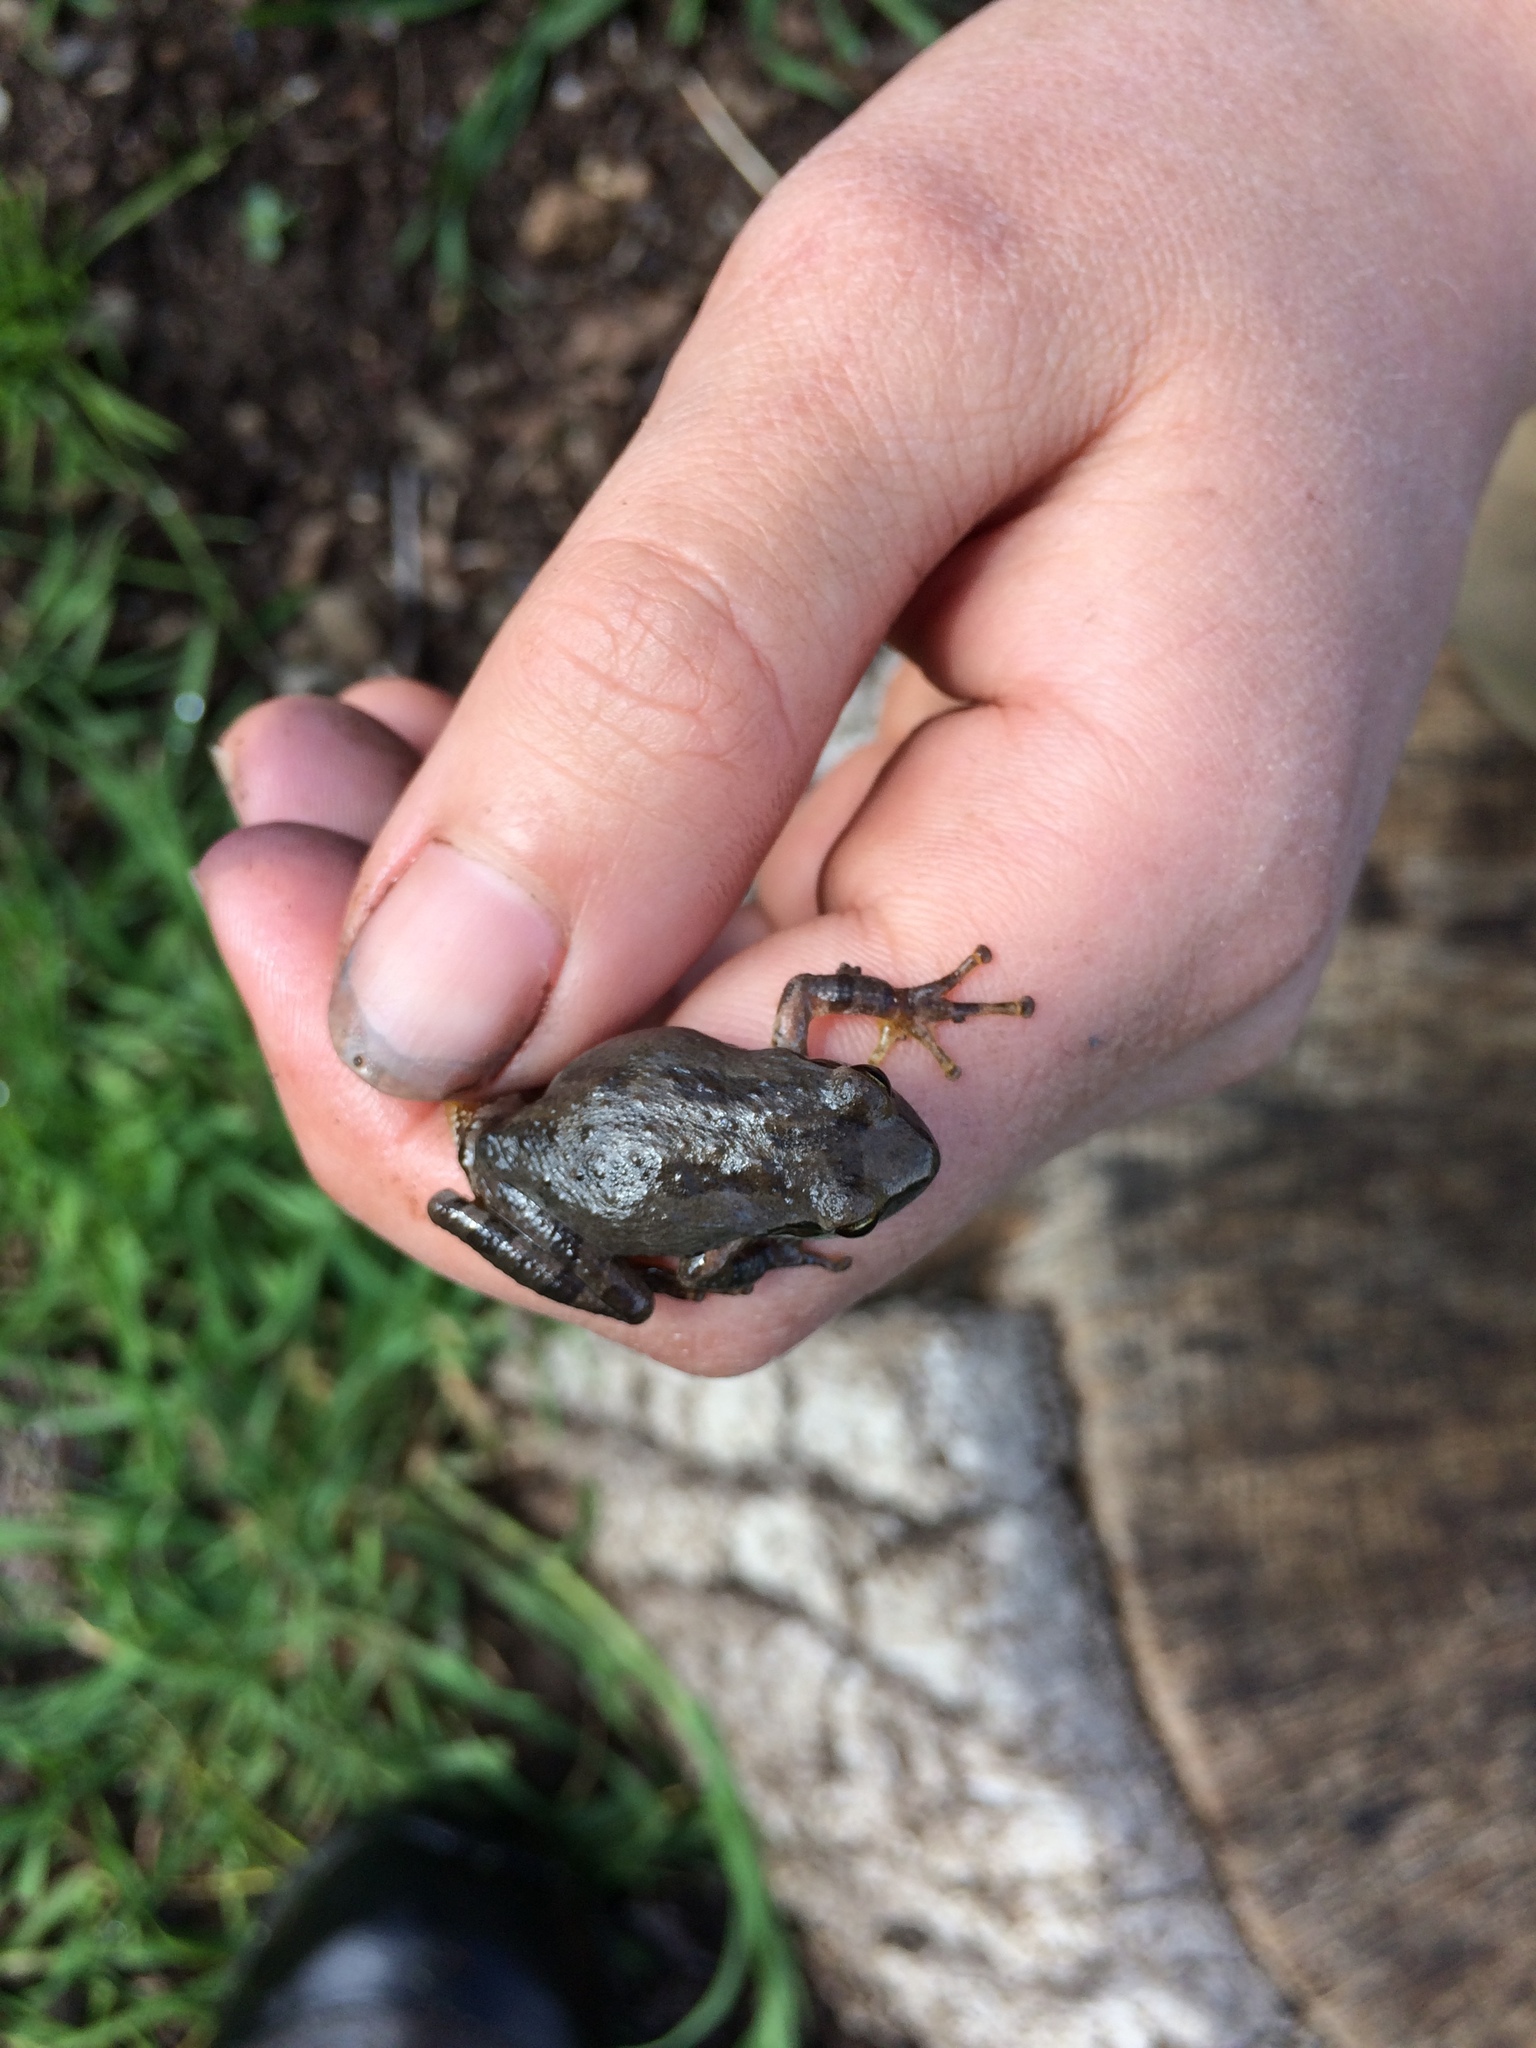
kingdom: Animalia
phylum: Chordata
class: Amphibia
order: Anura
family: Hylidae
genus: Pseudacris
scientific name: Pseudacris regilla
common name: Pacific chorus frog
